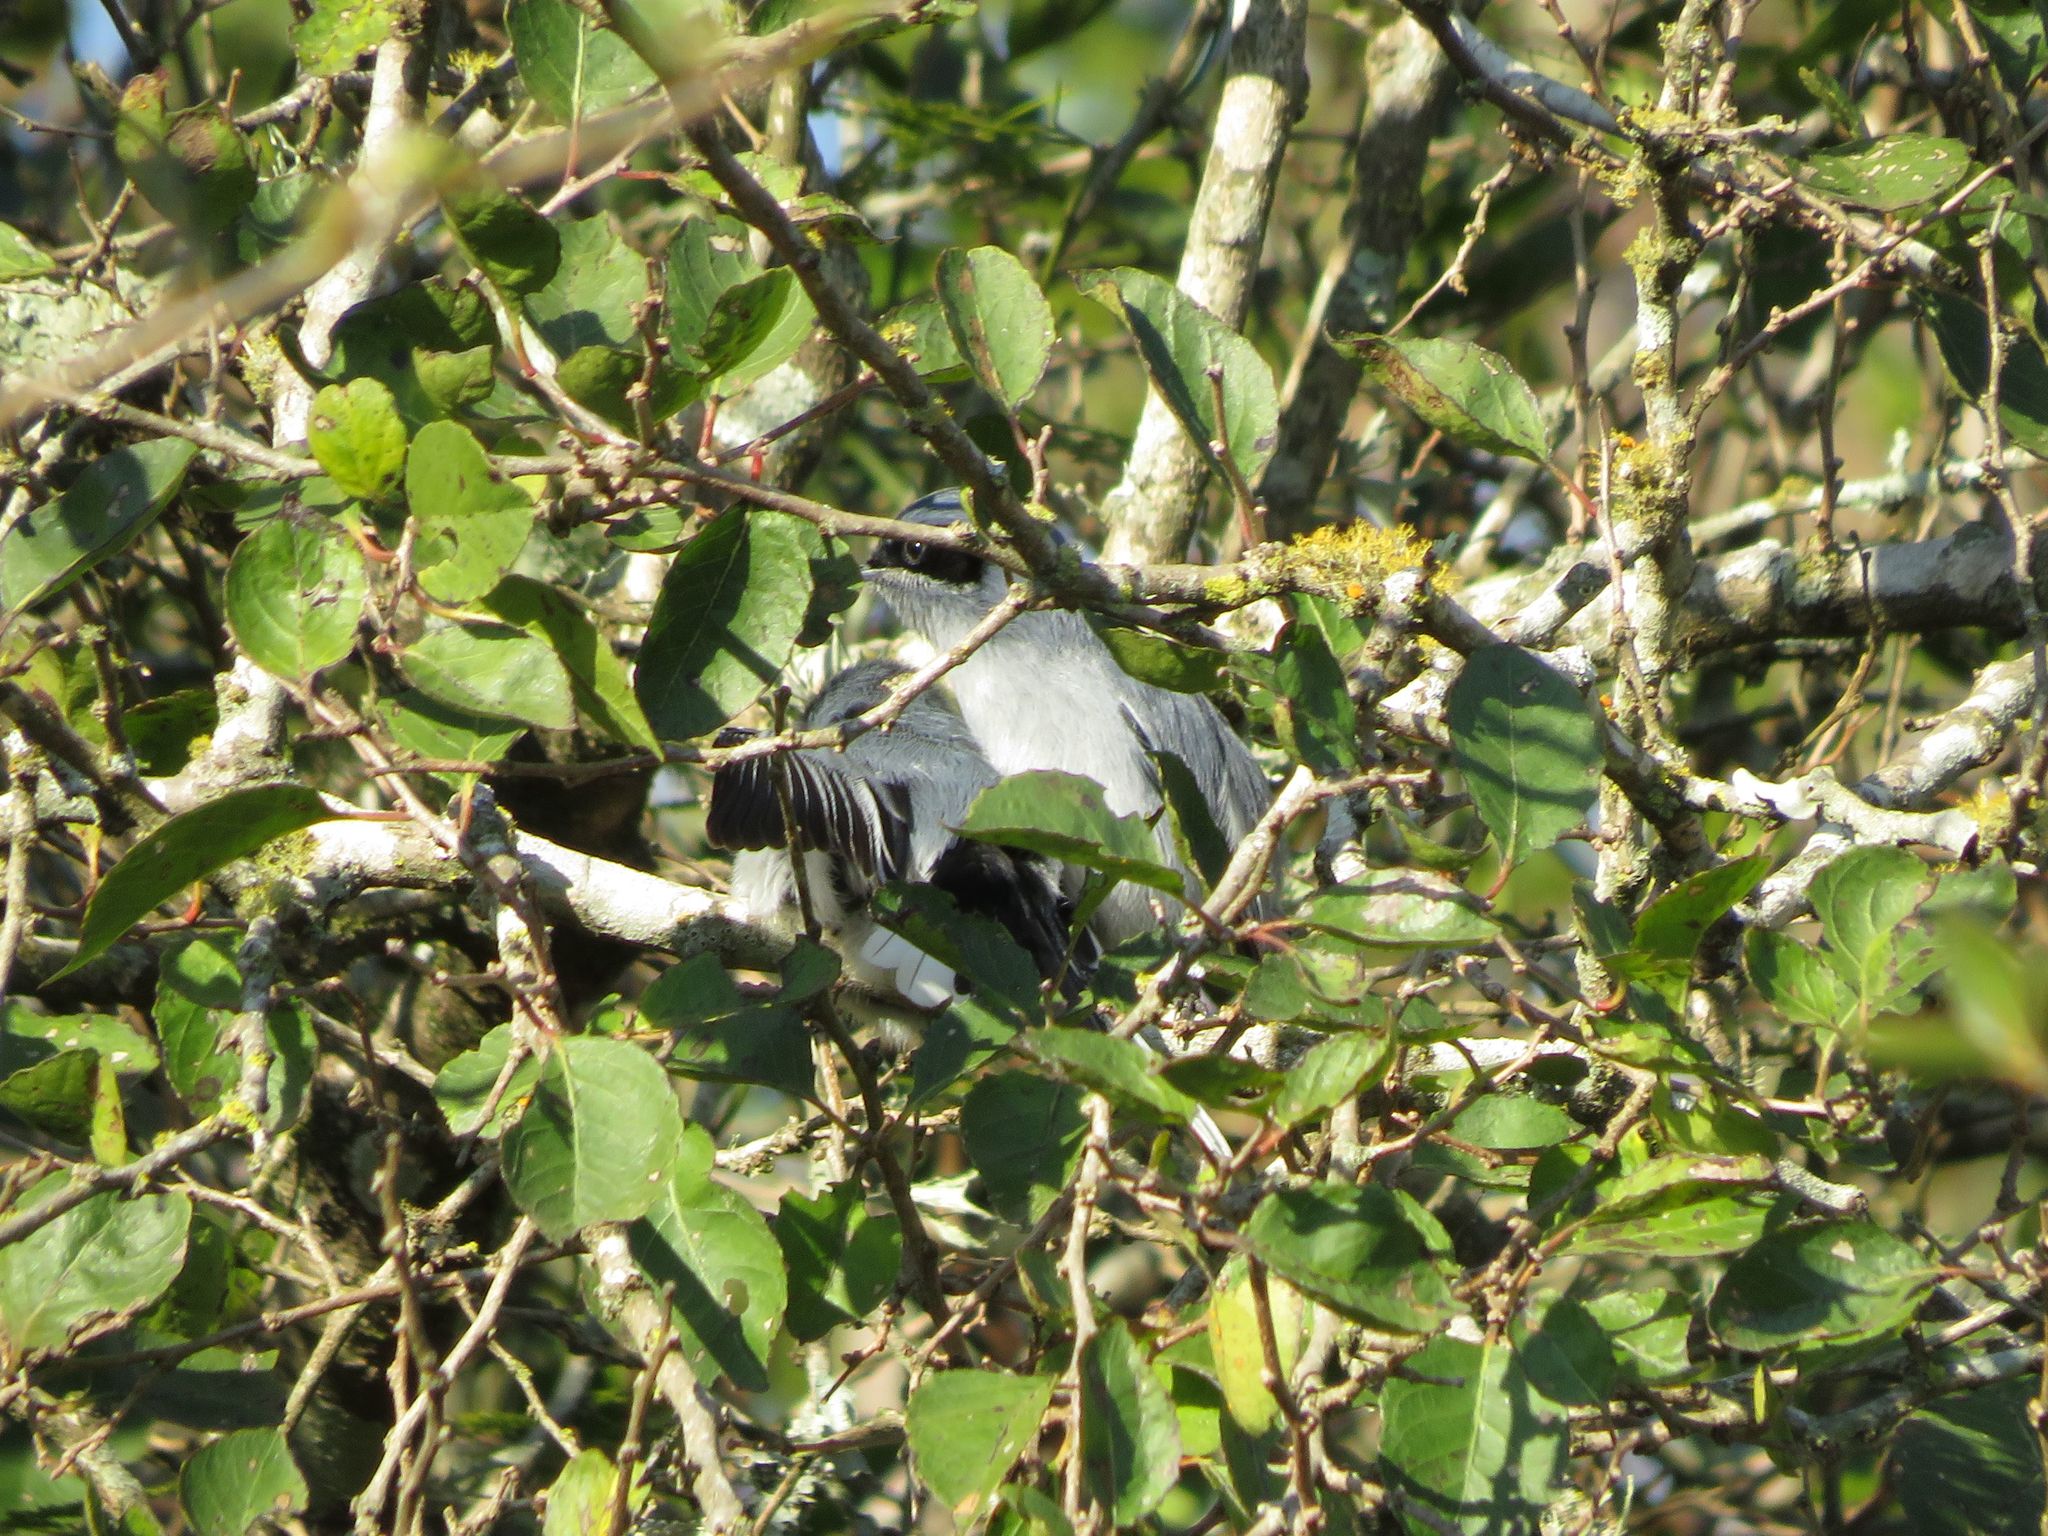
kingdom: Animalia
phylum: Chordata
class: Aves
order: Passeriformes
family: Polioptilidae
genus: Polioptila
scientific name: Polioptila dumicola
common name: Masked gnatcatcher
